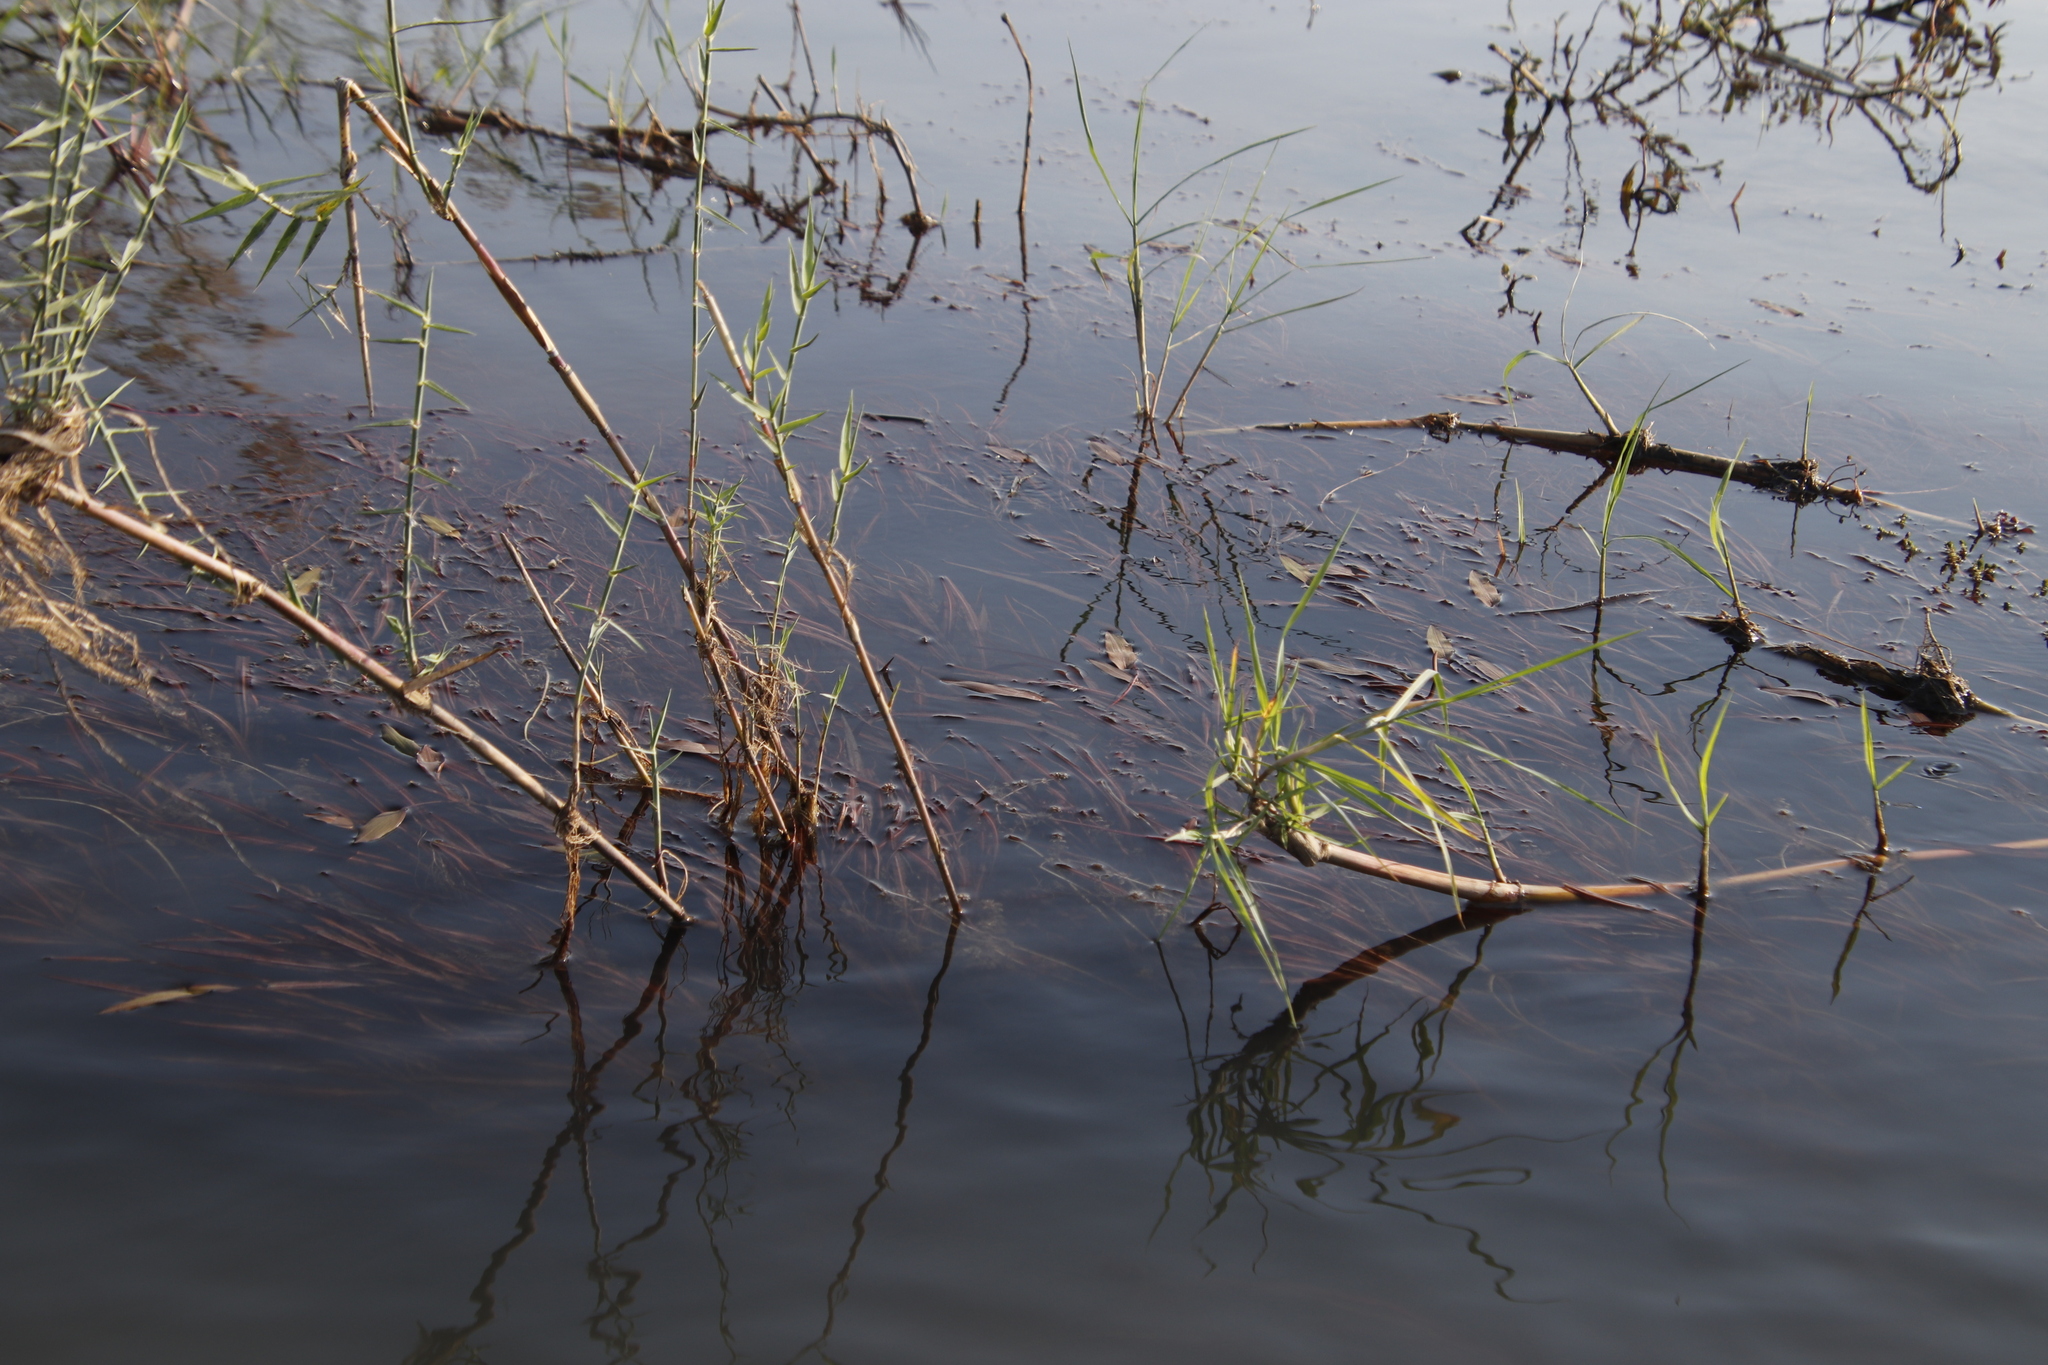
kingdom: Plantae
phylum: Tracheophyta
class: Liliopsida
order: Alismatales
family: Potamogetonaceae
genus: Potamogeton
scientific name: Potamogeton schweinfurthii
